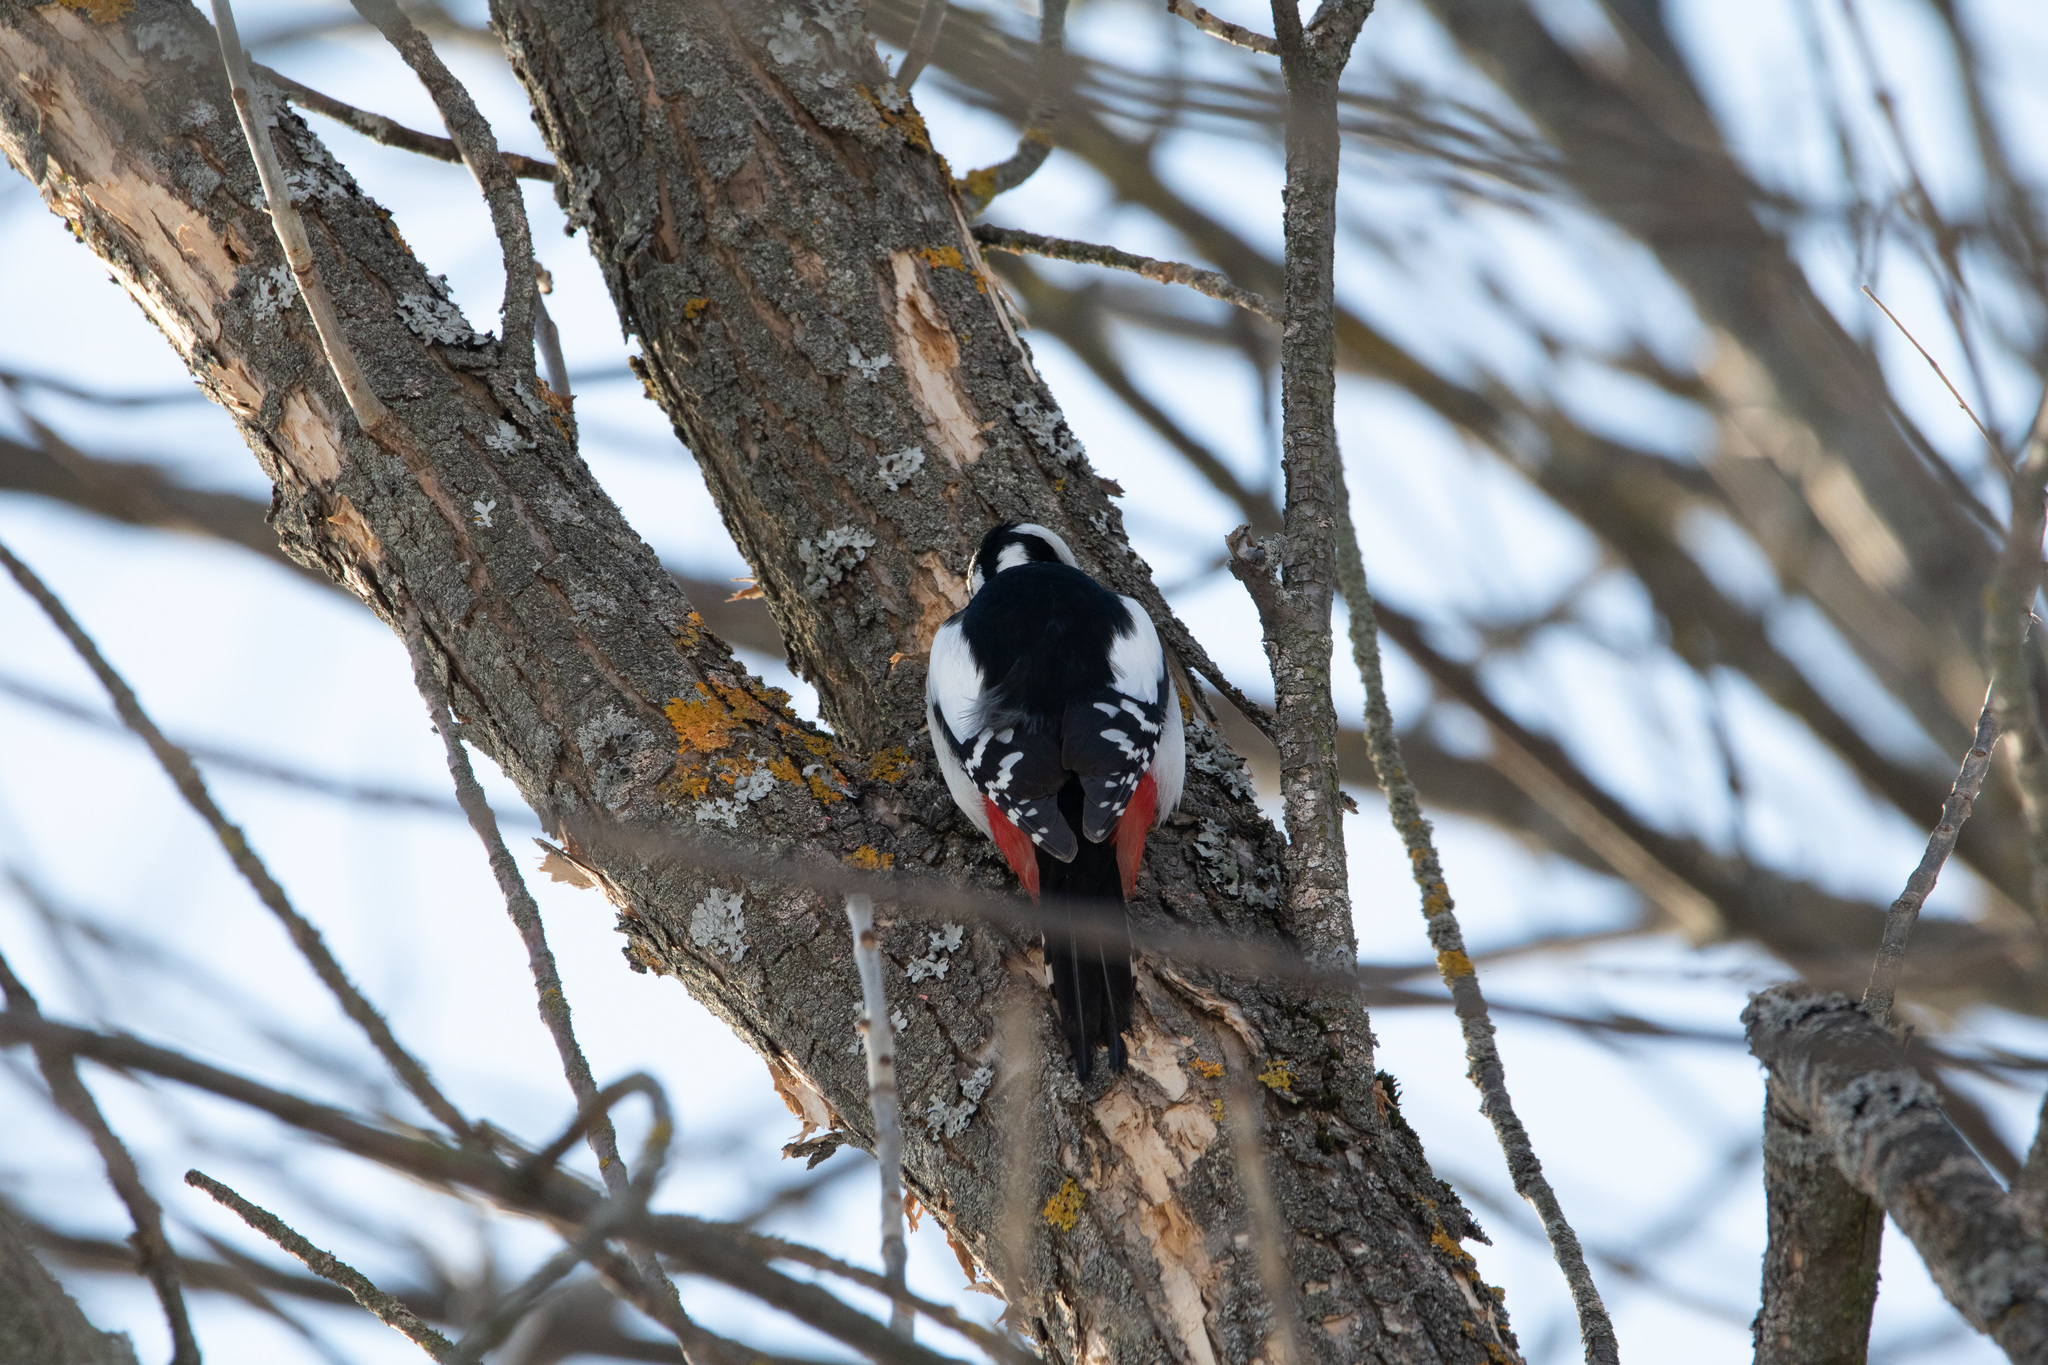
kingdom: Animalia
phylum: Chordata
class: Aves
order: Piciformes
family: Picidae
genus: Dendrocopos
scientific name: Dendrocopos major
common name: Great spotted woodpecker
